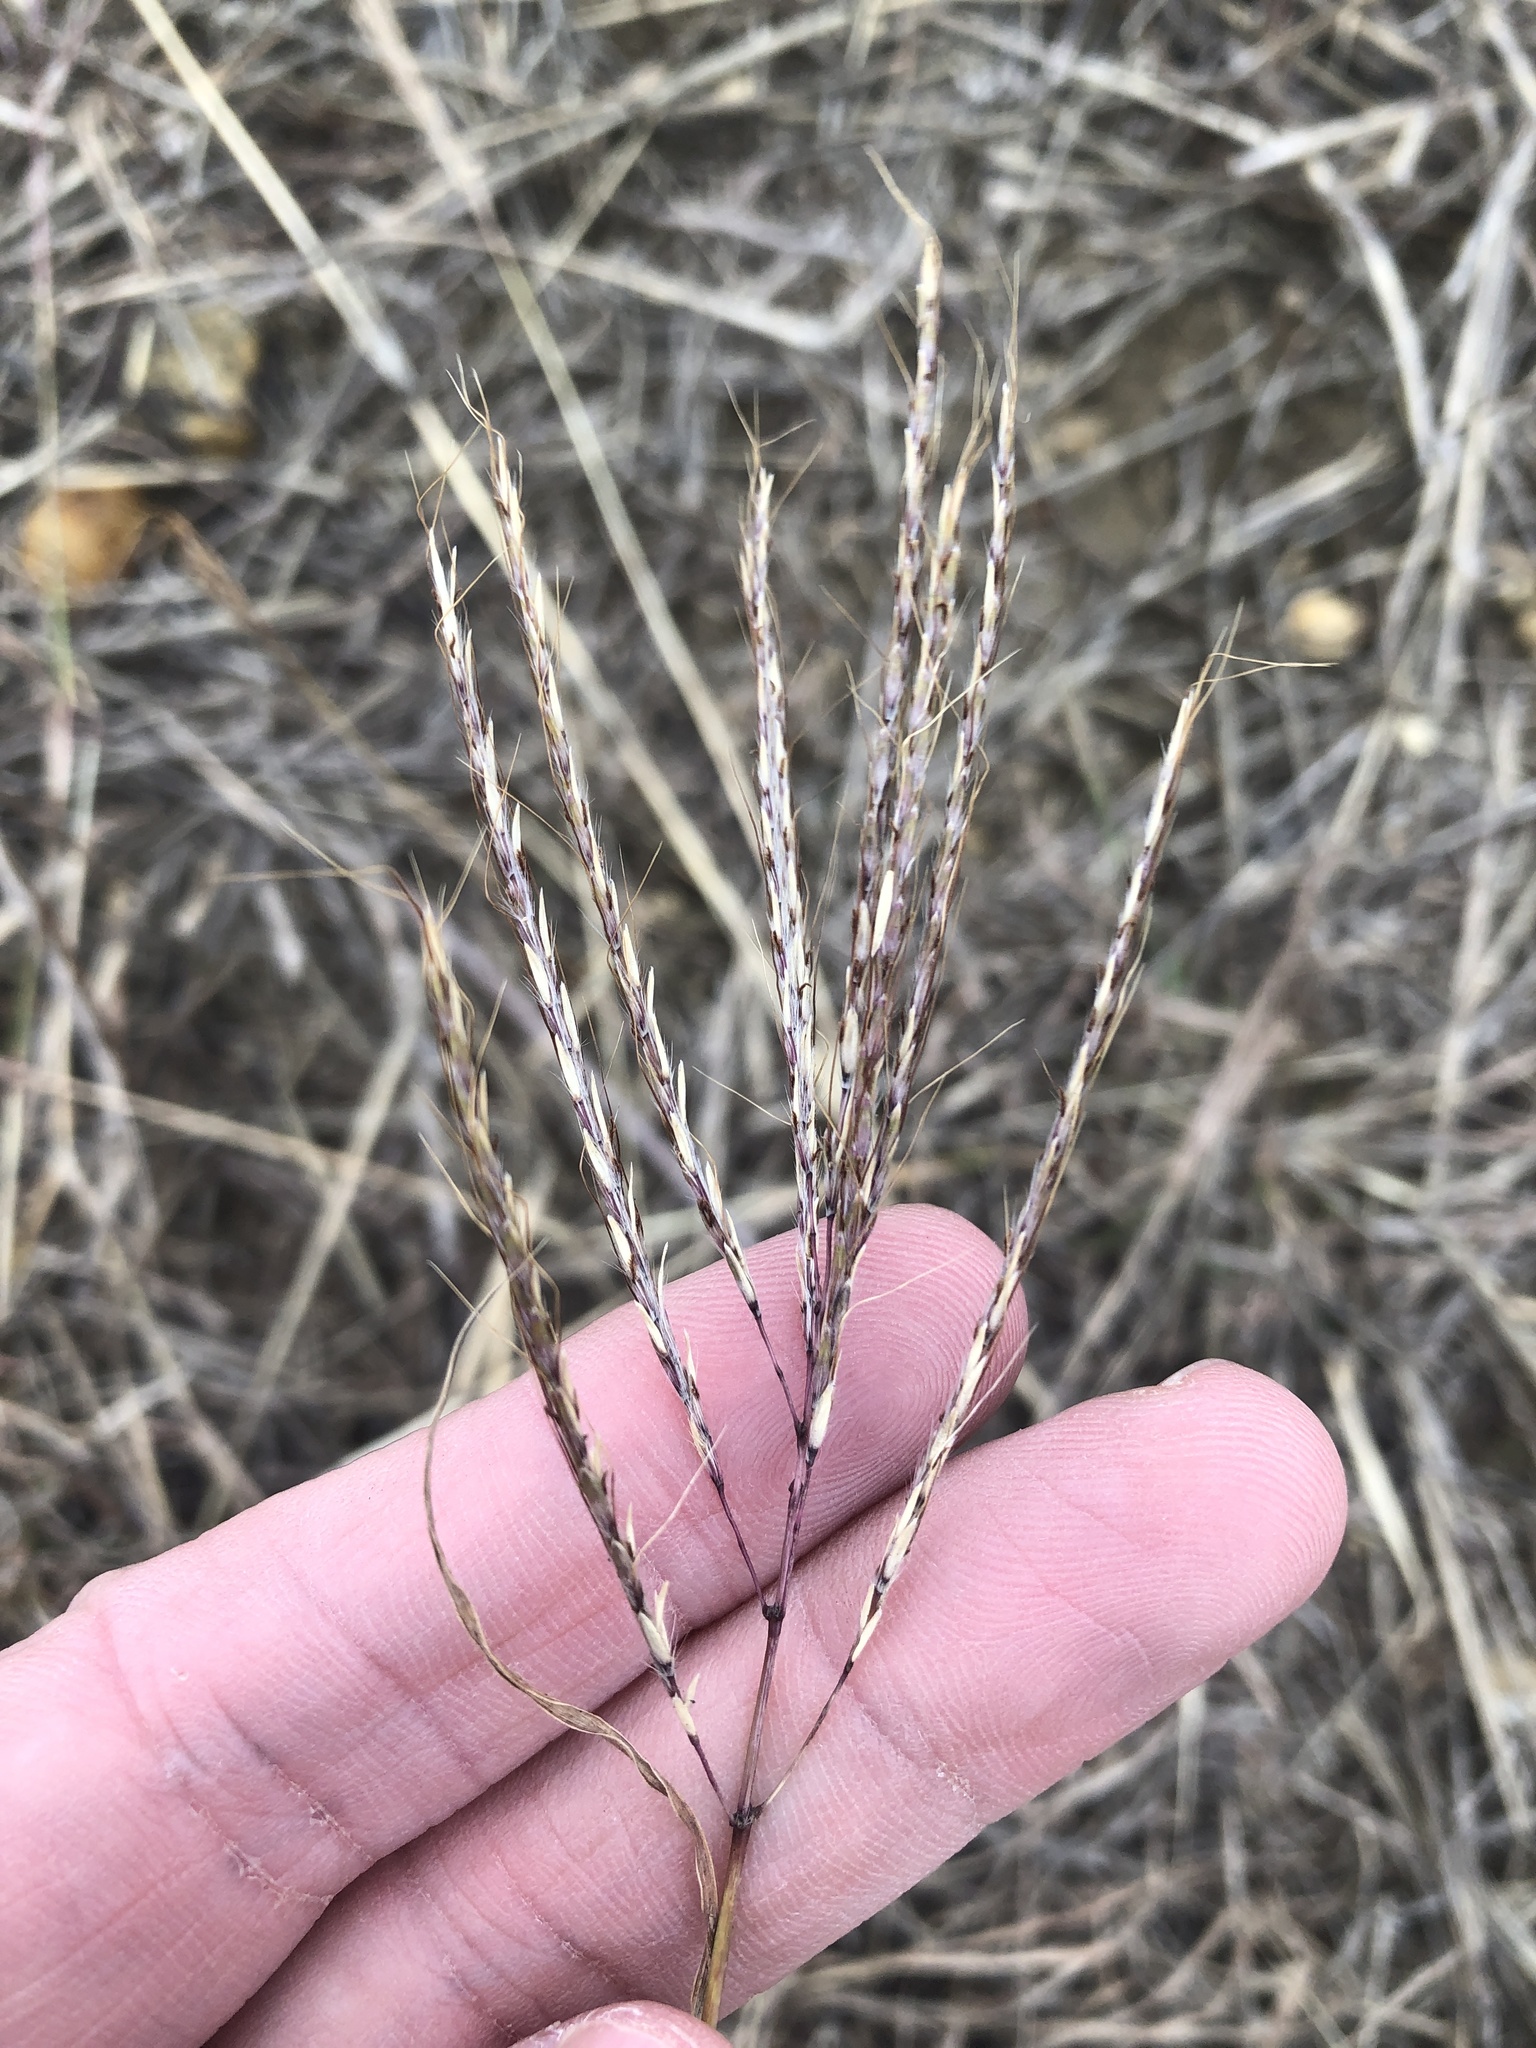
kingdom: Plantae
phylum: Tracheophyta
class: Liliopsida
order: Poales
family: Poaceae
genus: Bothriochloa
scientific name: Bothriochloa ischaemum
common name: Yellow bluestem
